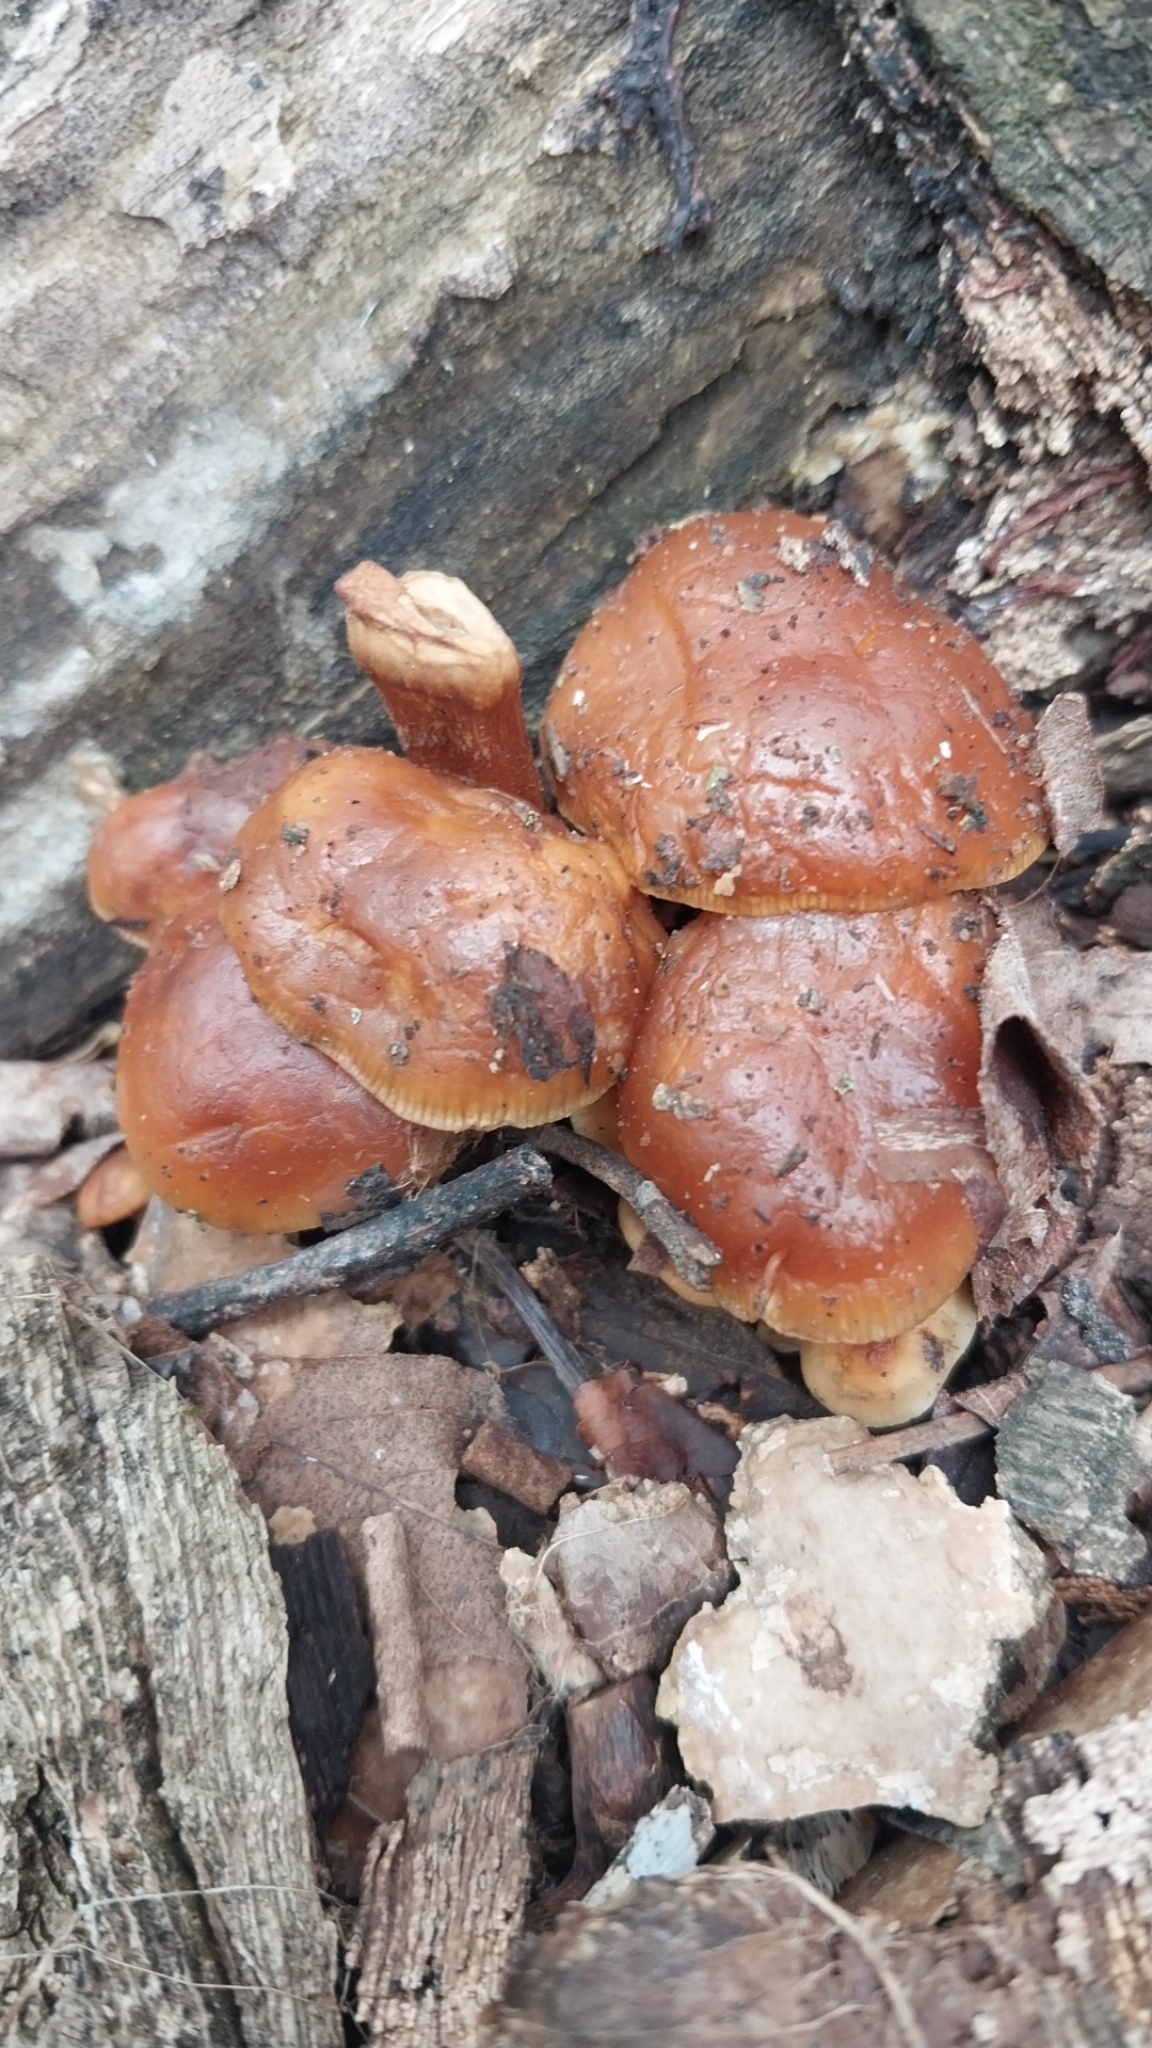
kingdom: Fungi
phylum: Basidiomycota
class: Agaricomycetes
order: Agaricales
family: Physalacriaceae
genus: Flammulina
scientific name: Flammulina velutipes
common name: Velvet shank
